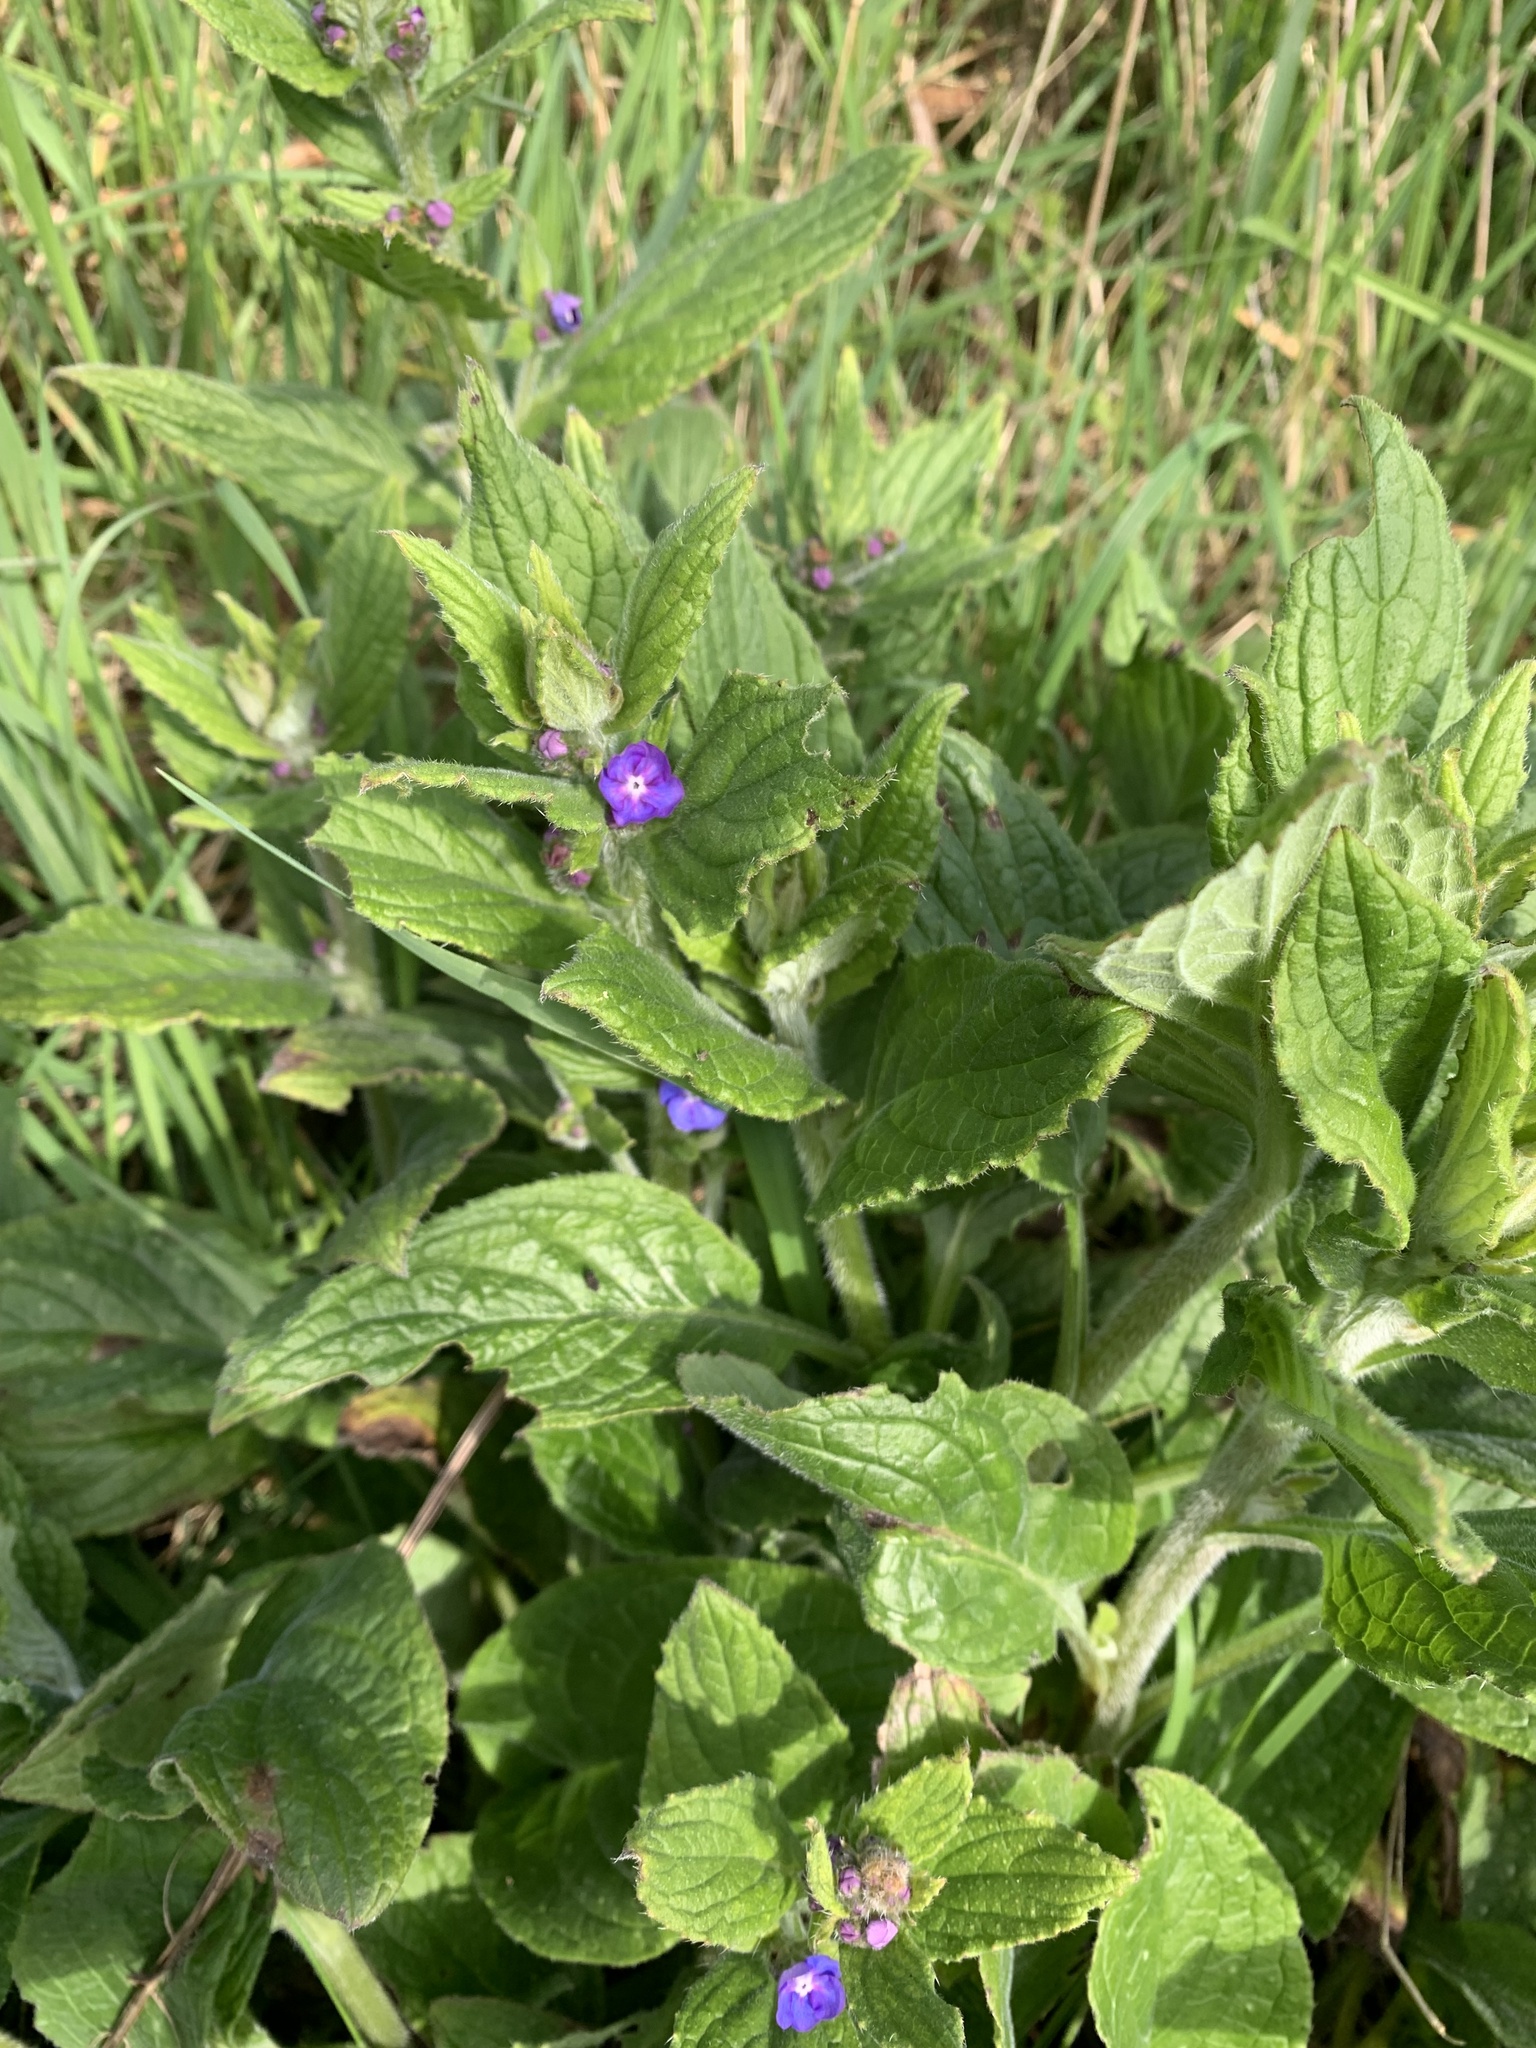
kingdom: Plantae
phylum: Tracheophyta
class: Magnoliopsida
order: Boraginales
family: Boraginaceae
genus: Pentaglottis
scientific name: Pentaglottis sempervirens
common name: Green alkanet
